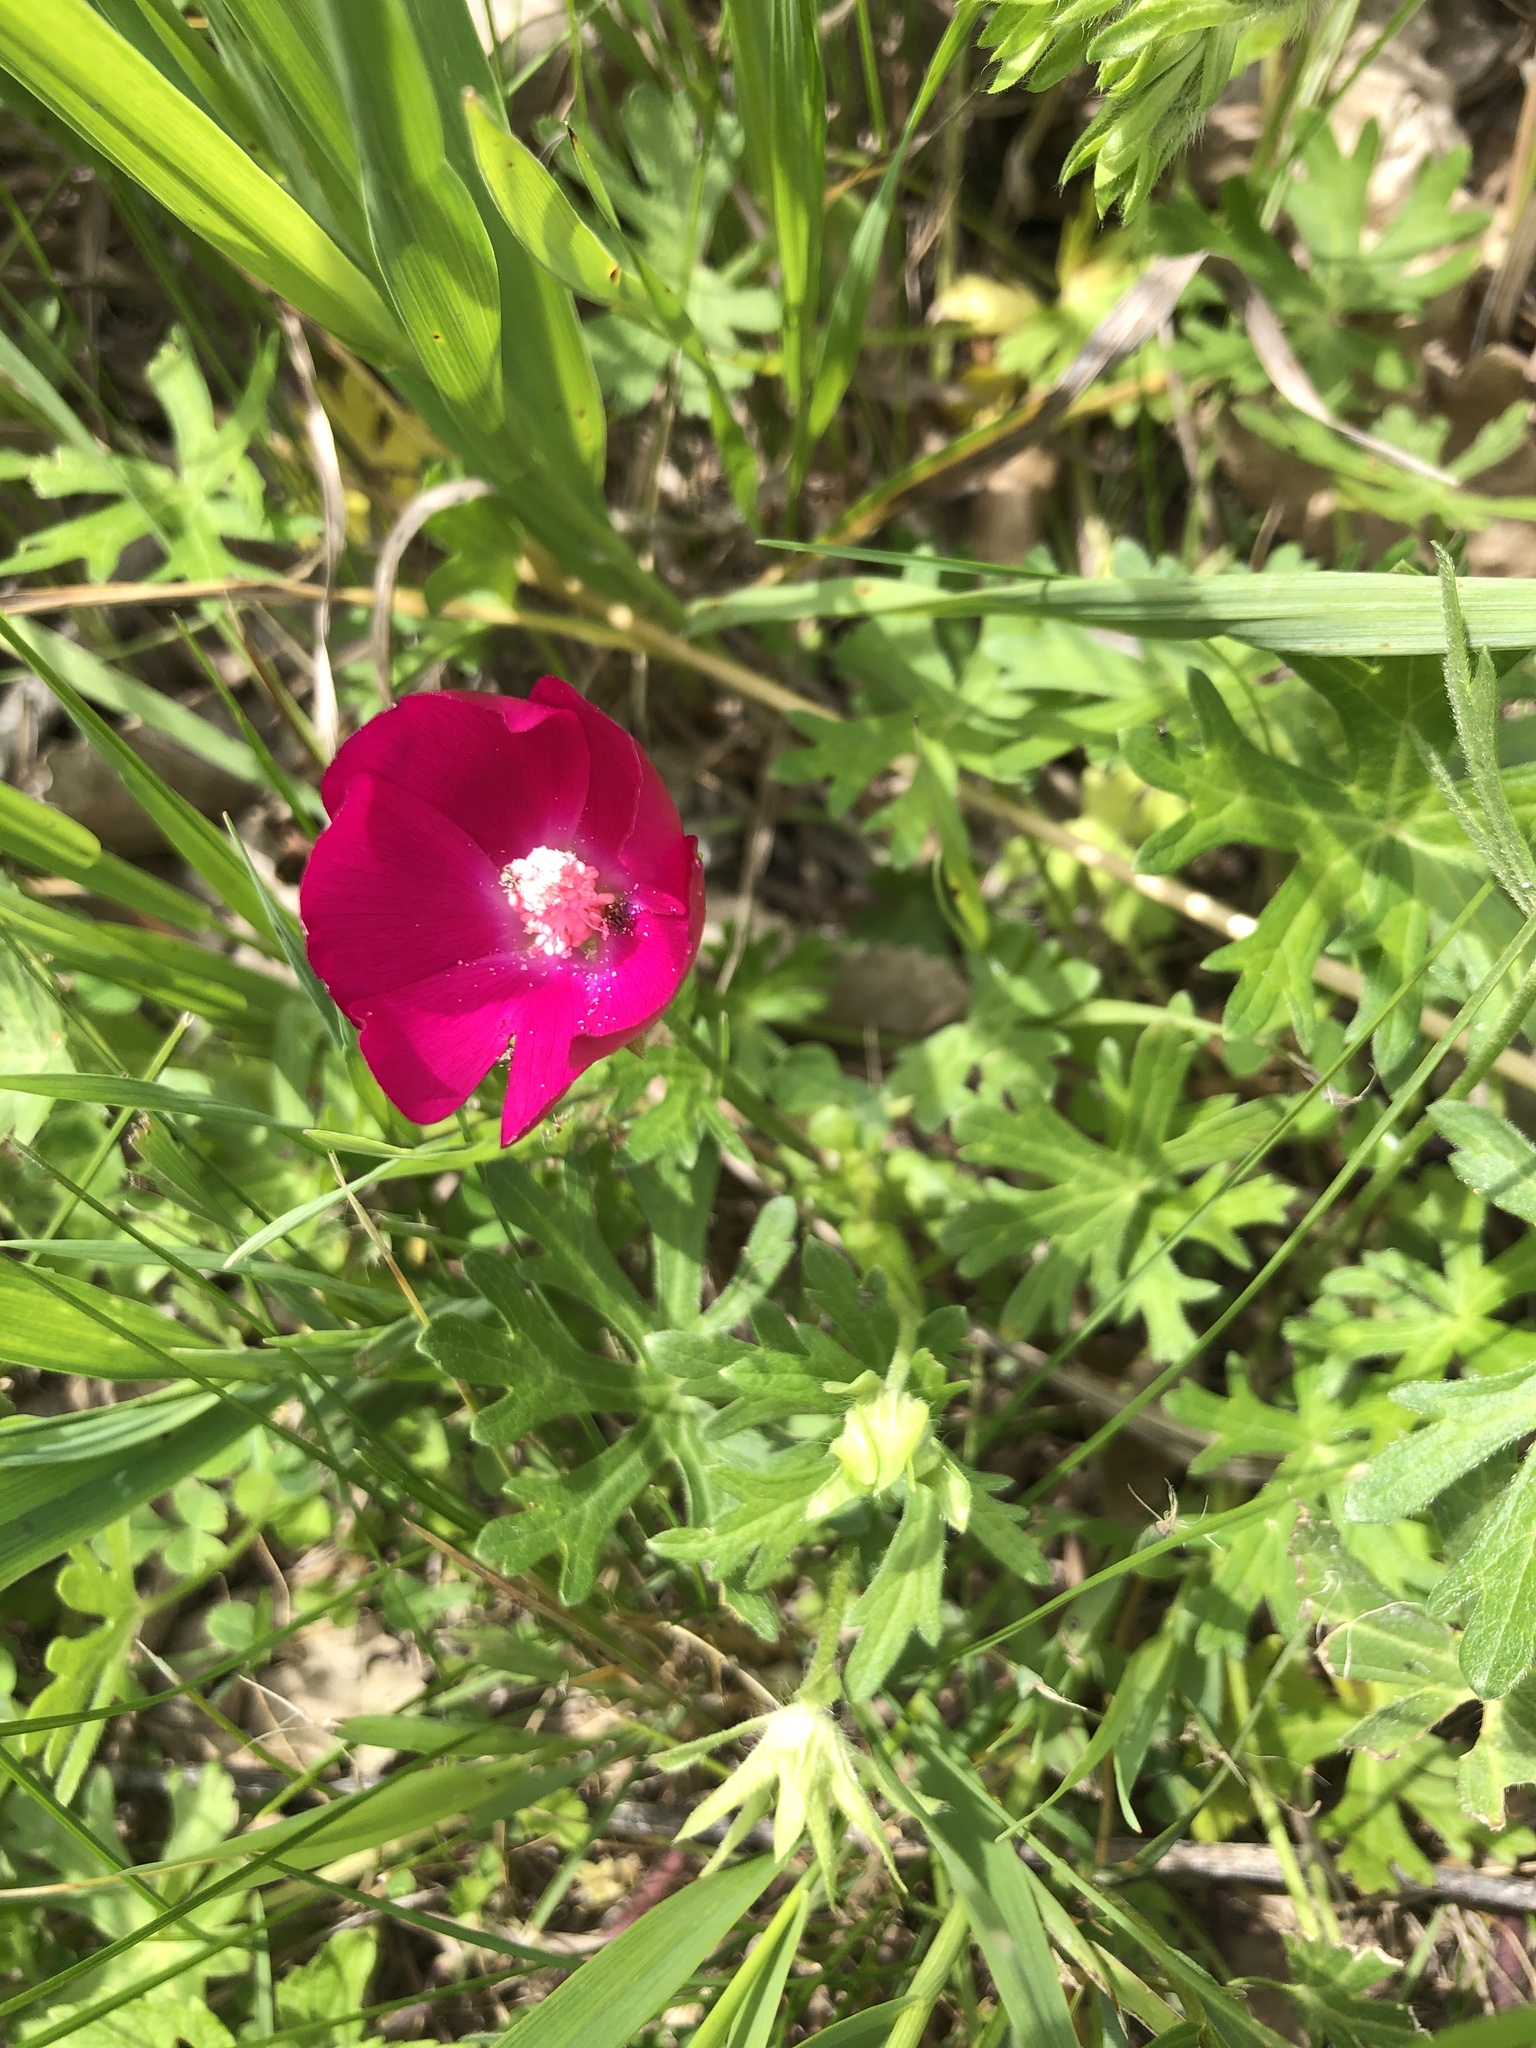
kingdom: Plantae
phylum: Tracheophyta
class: Magnoliopsida
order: Malvales
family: Malvaceae
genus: Callirhoe
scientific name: Callirhoe involucrata
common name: Purple poppy-mallow
